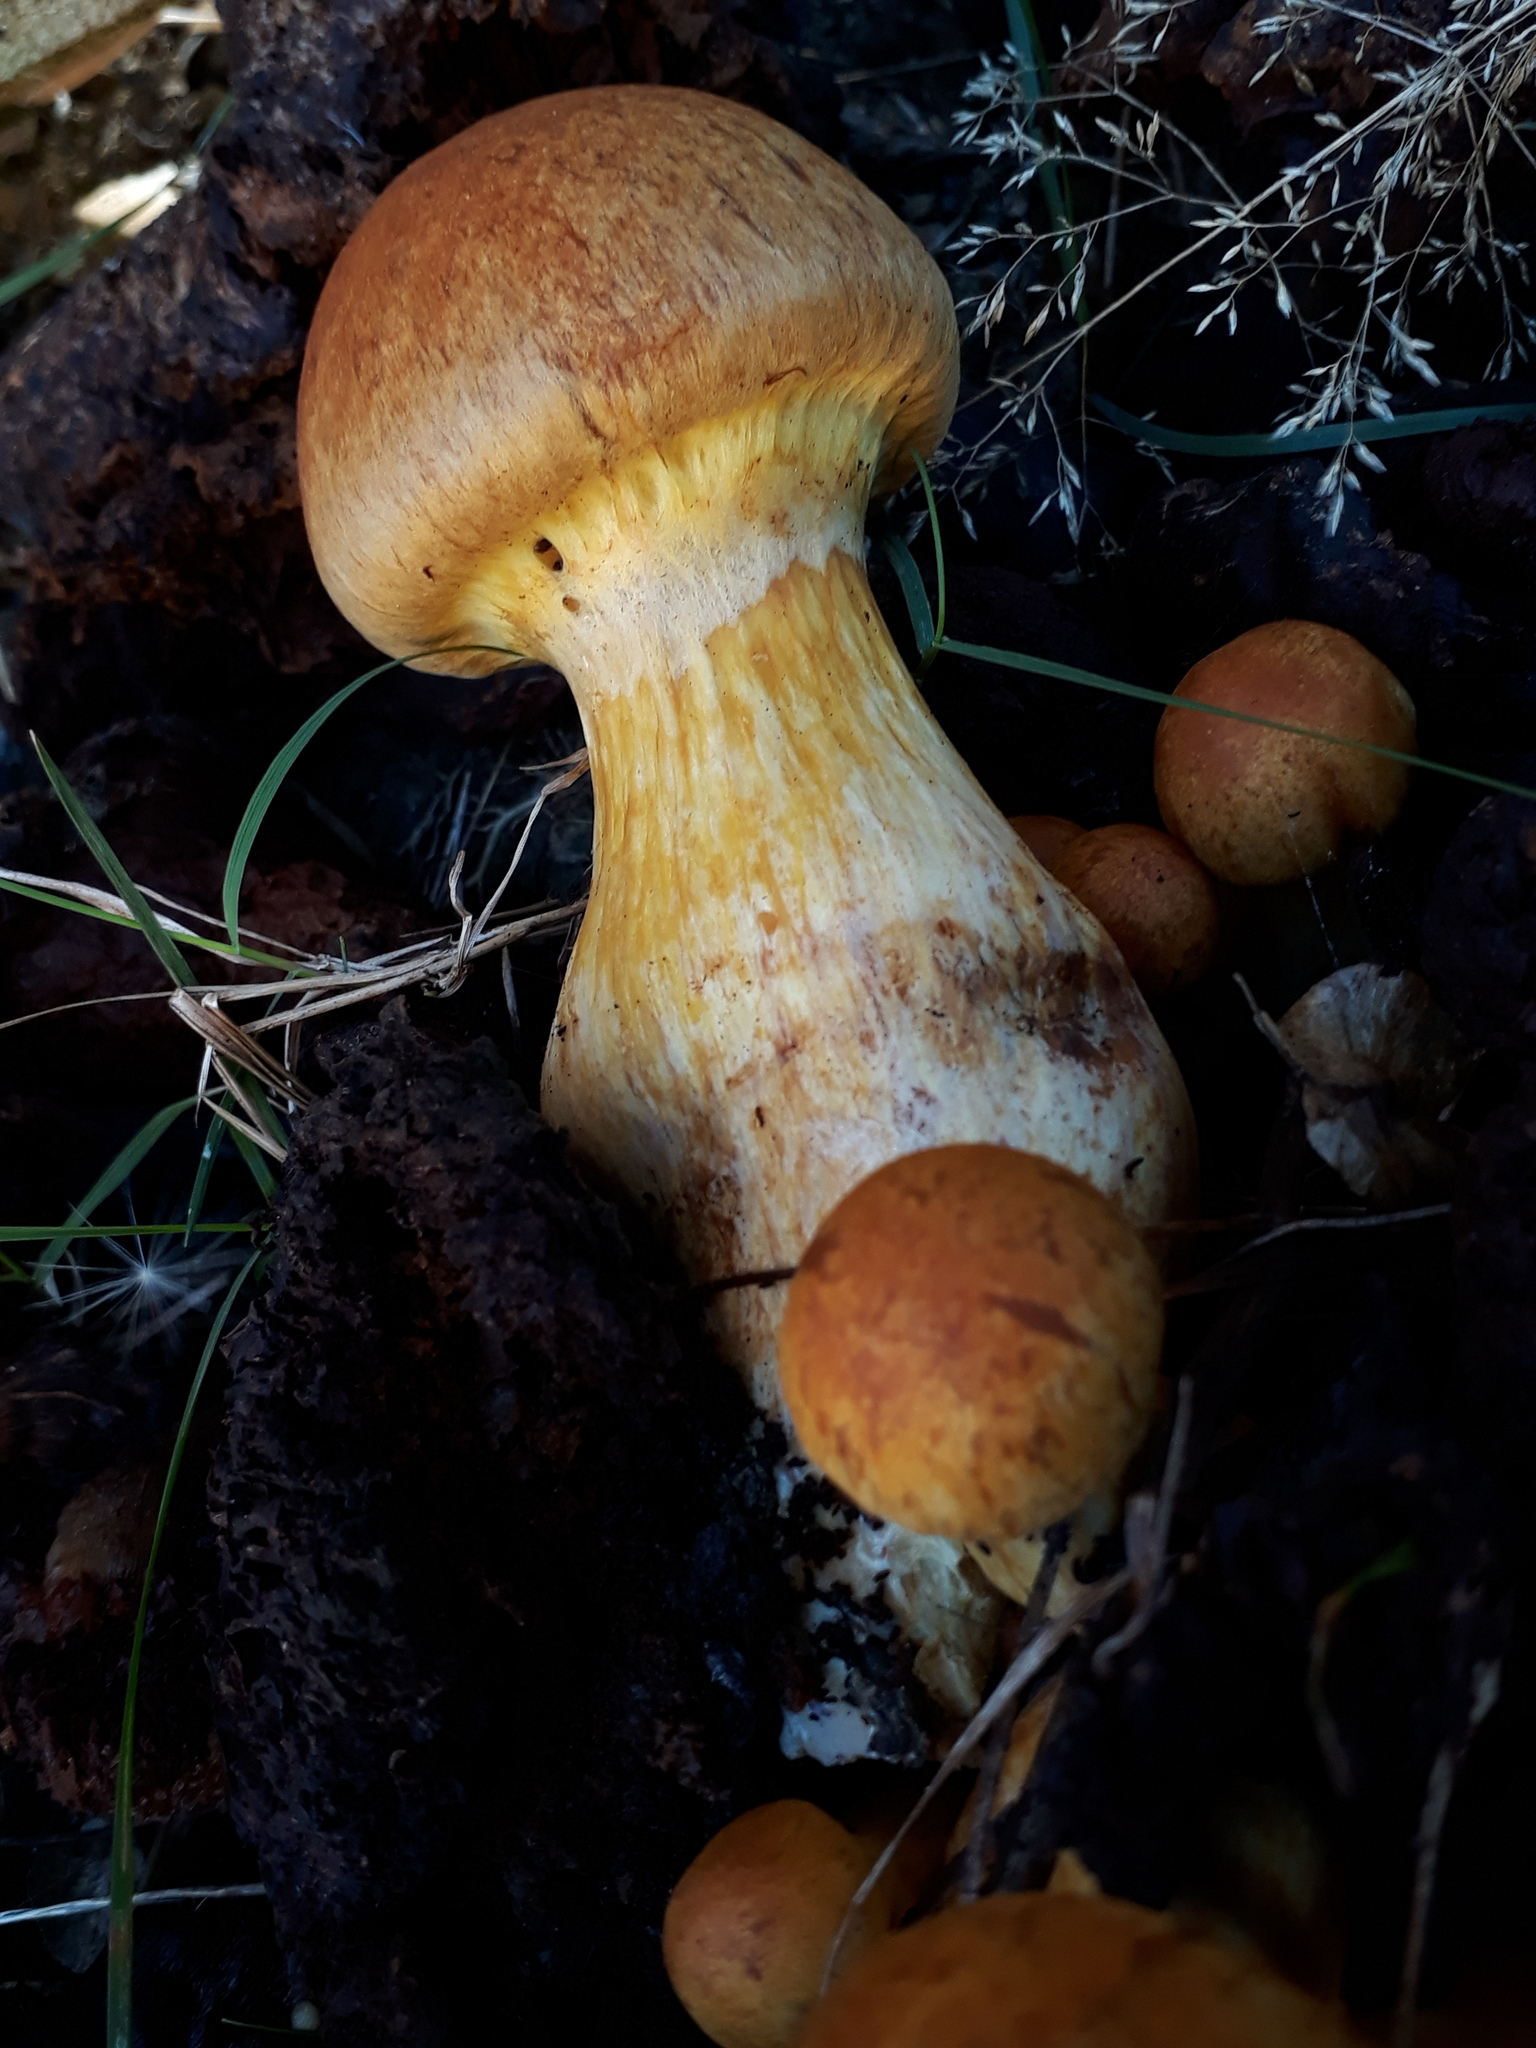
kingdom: Fungi
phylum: Basidiomycota
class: Agaricomycetes
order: Agaricales
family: Hymenogastraceae
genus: Gymnopilus
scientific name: Gymnopilus junonius
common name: Spectacular rustgill
